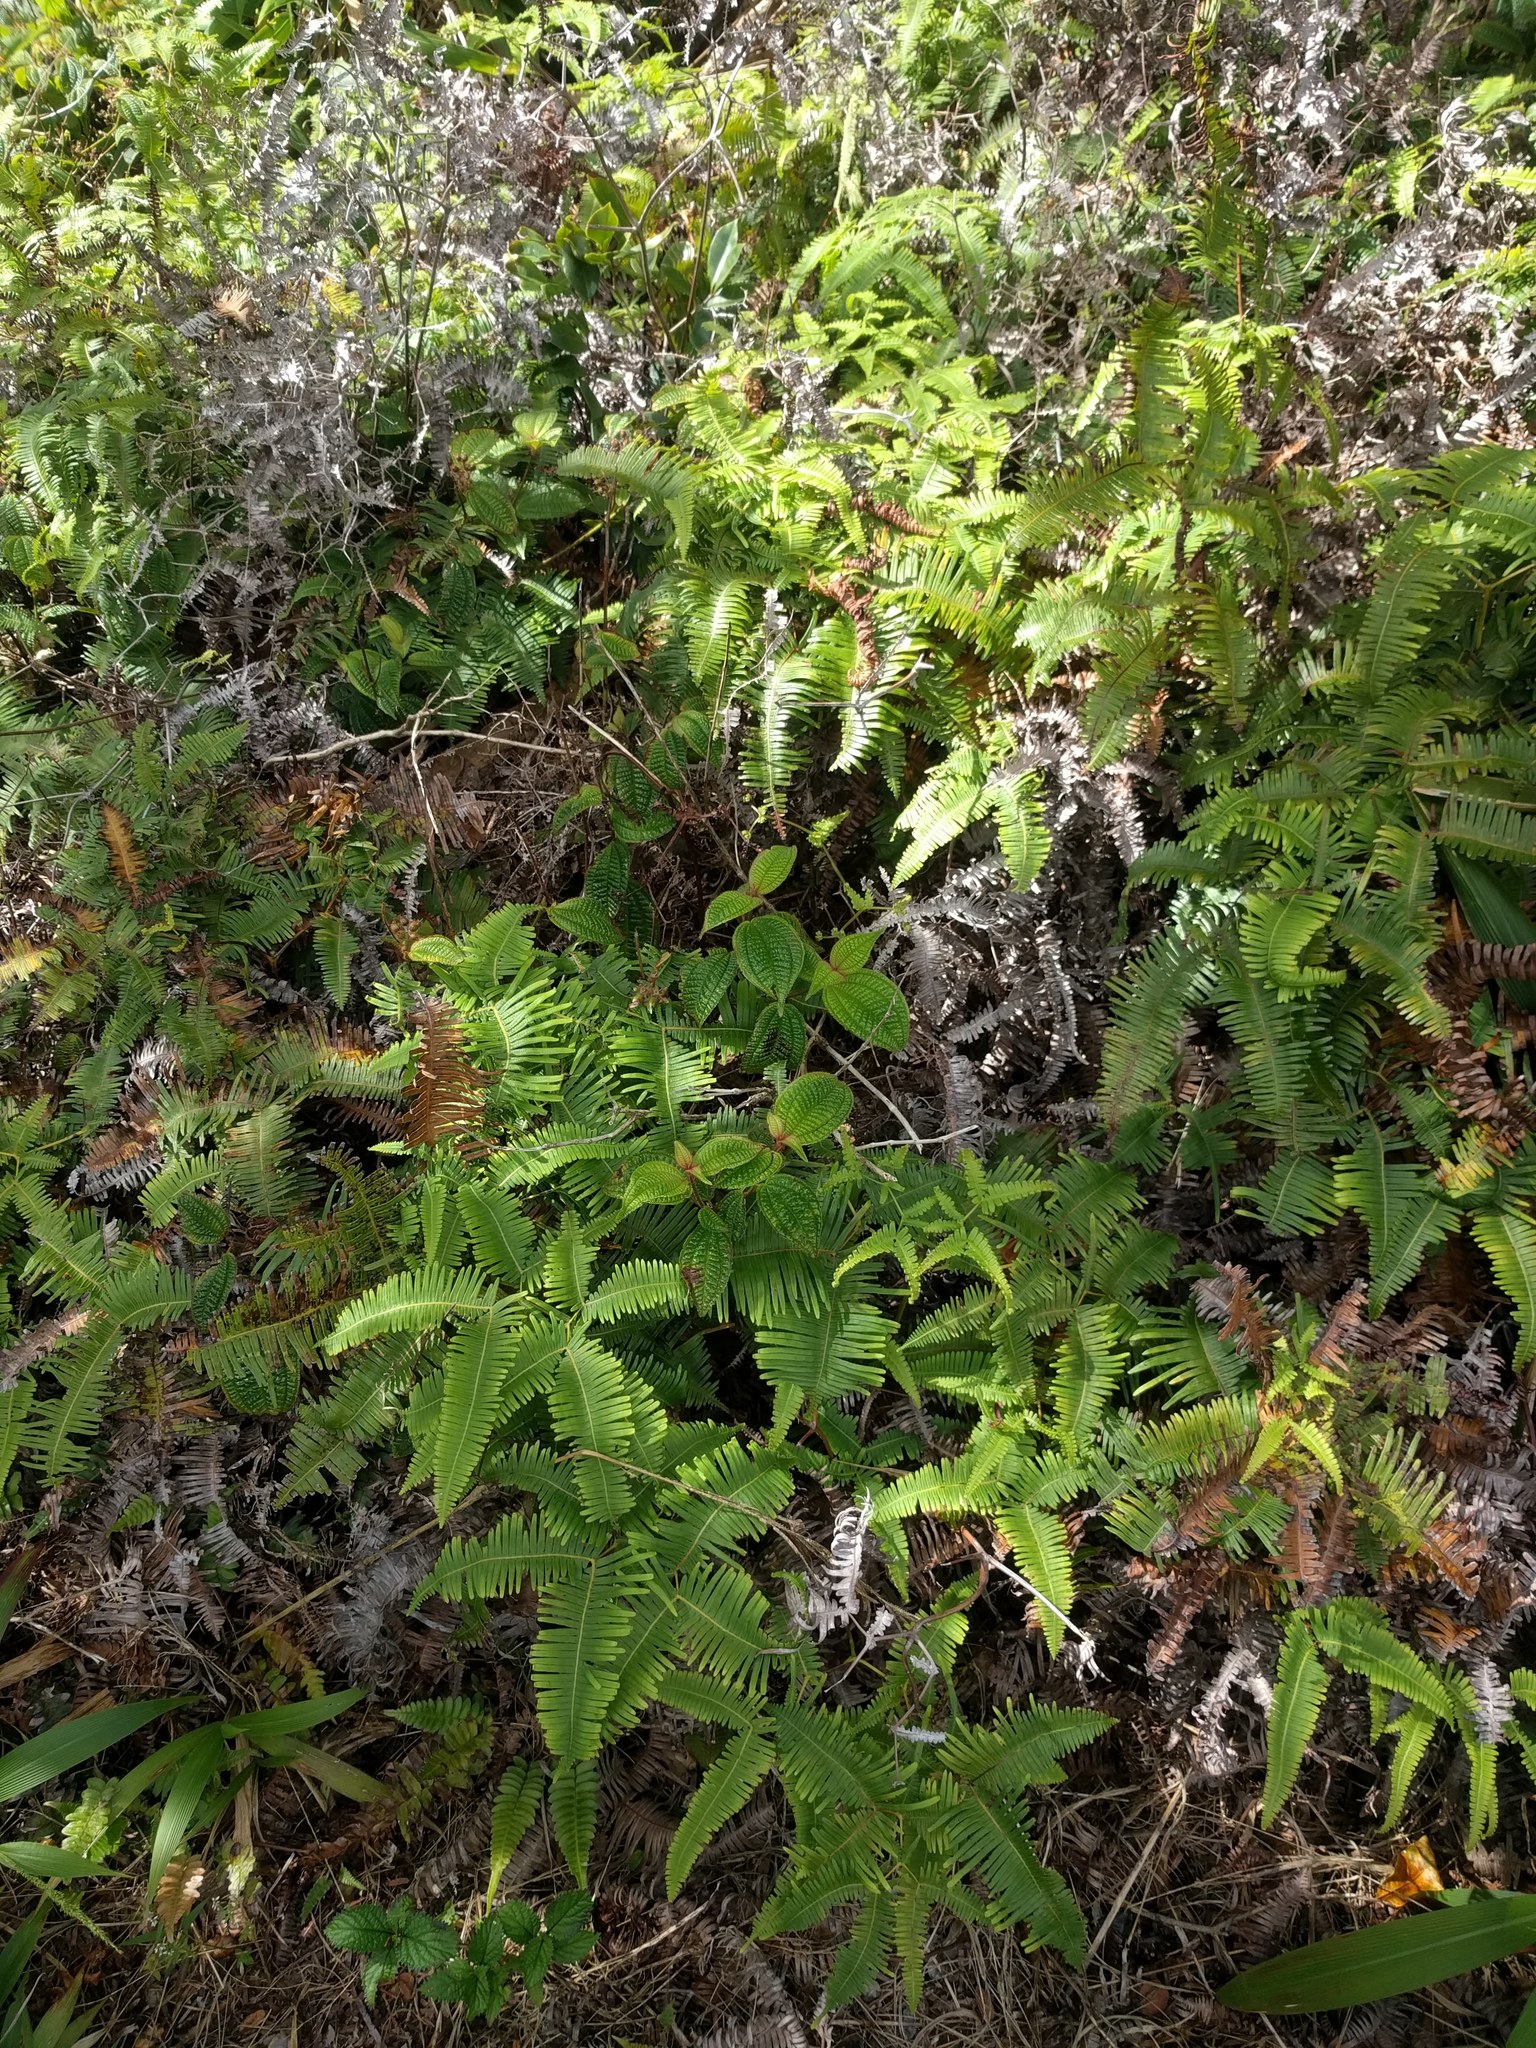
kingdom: Plantae
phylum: Tracheophyta
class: Polypodiopsida
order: Gleicheniales
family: Gleicheniaceae
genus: Dicranopteris
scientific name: Dicranopteris linearis
